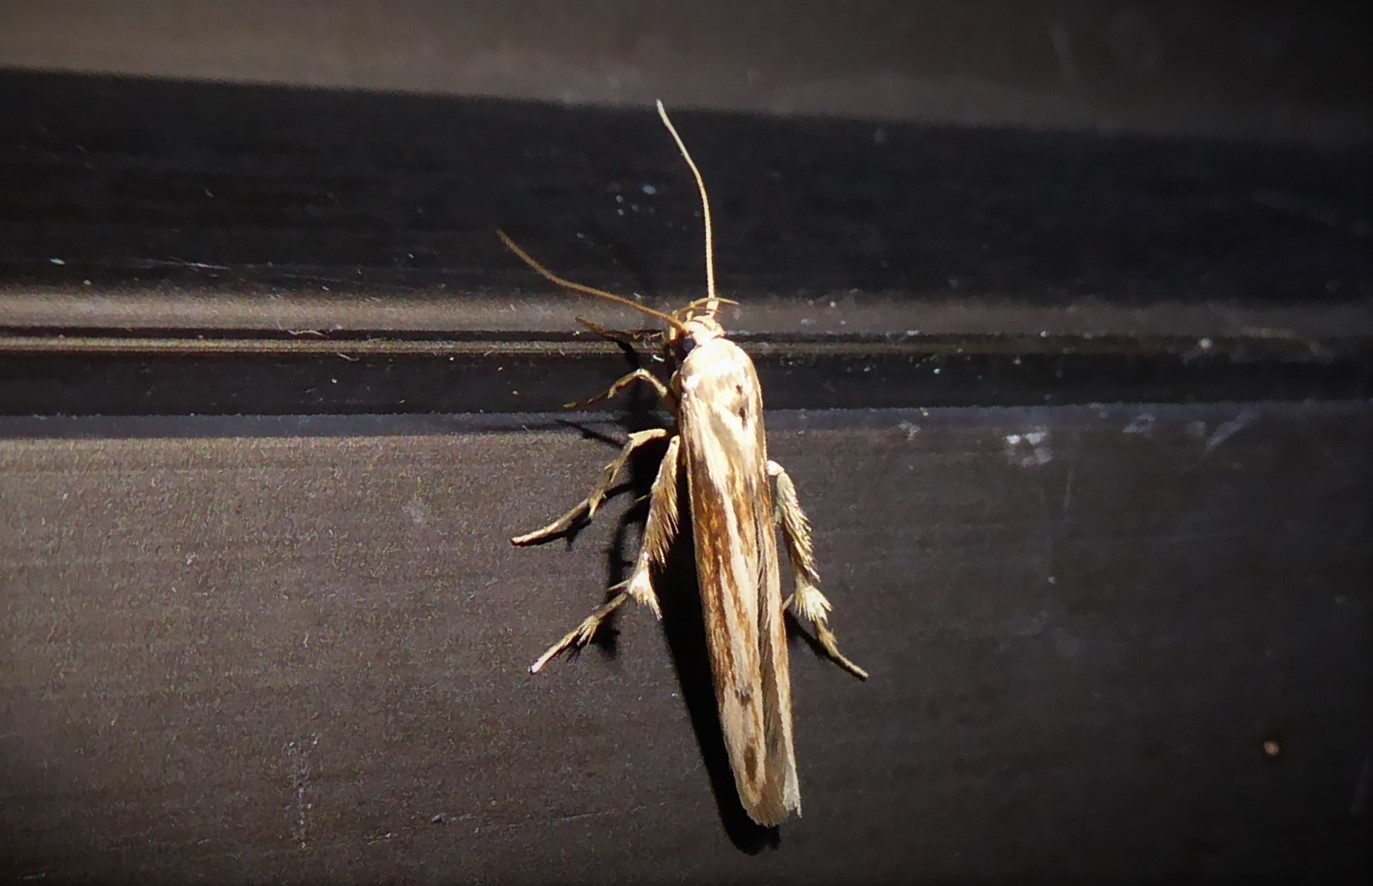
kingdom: Animalia
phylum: Arthropoda
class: Insecta
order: Lepidoptera
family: Stathmopodidae
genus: Stathmopoda
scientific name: Stathmopoda aposema
